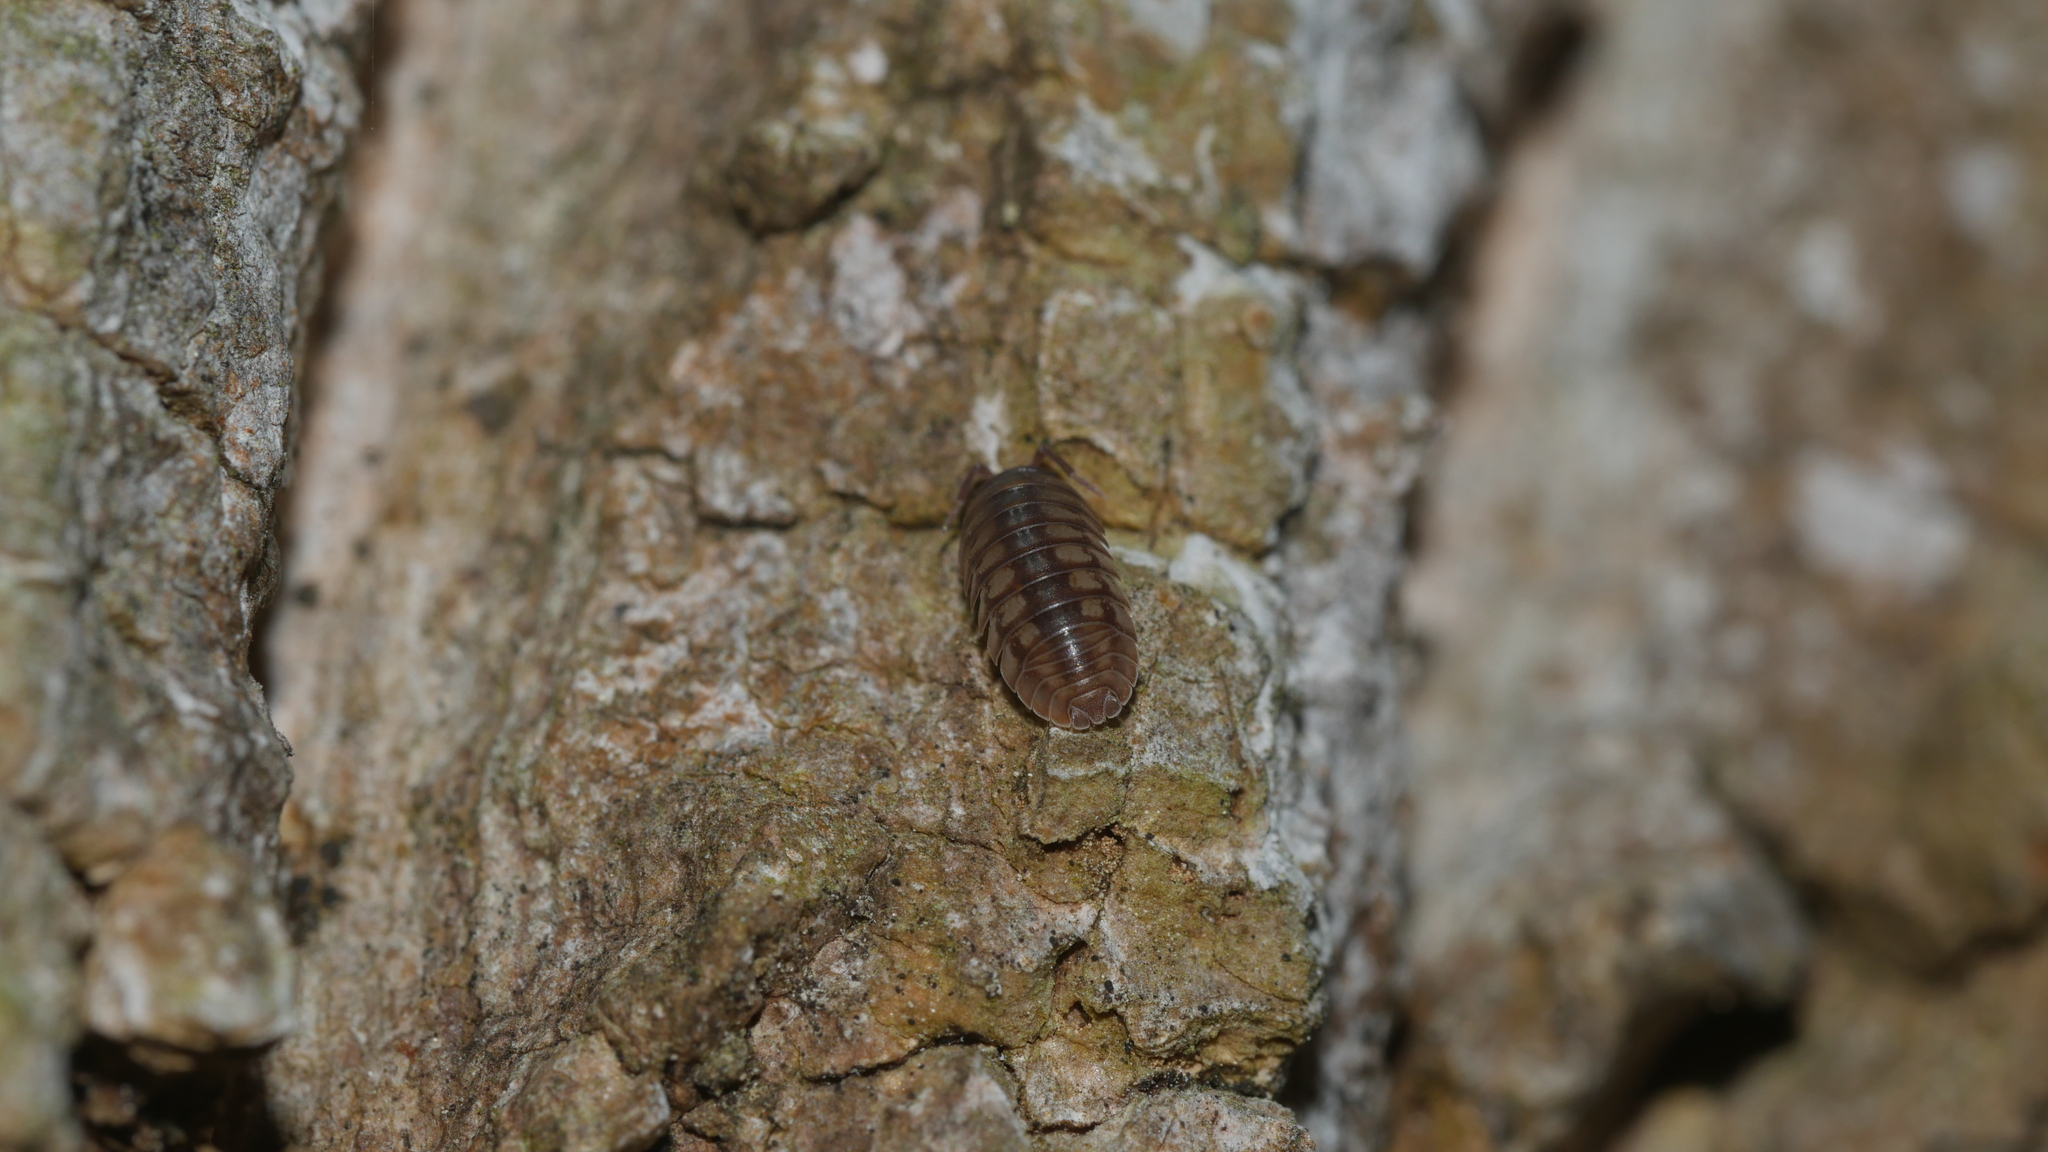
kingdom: Animalia
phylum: Arthropoda
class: Malacostraca
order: Isopoda
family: Armadillidiidae
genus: Armadillidium
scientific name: Armadillidium nasatum
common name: Isopod
